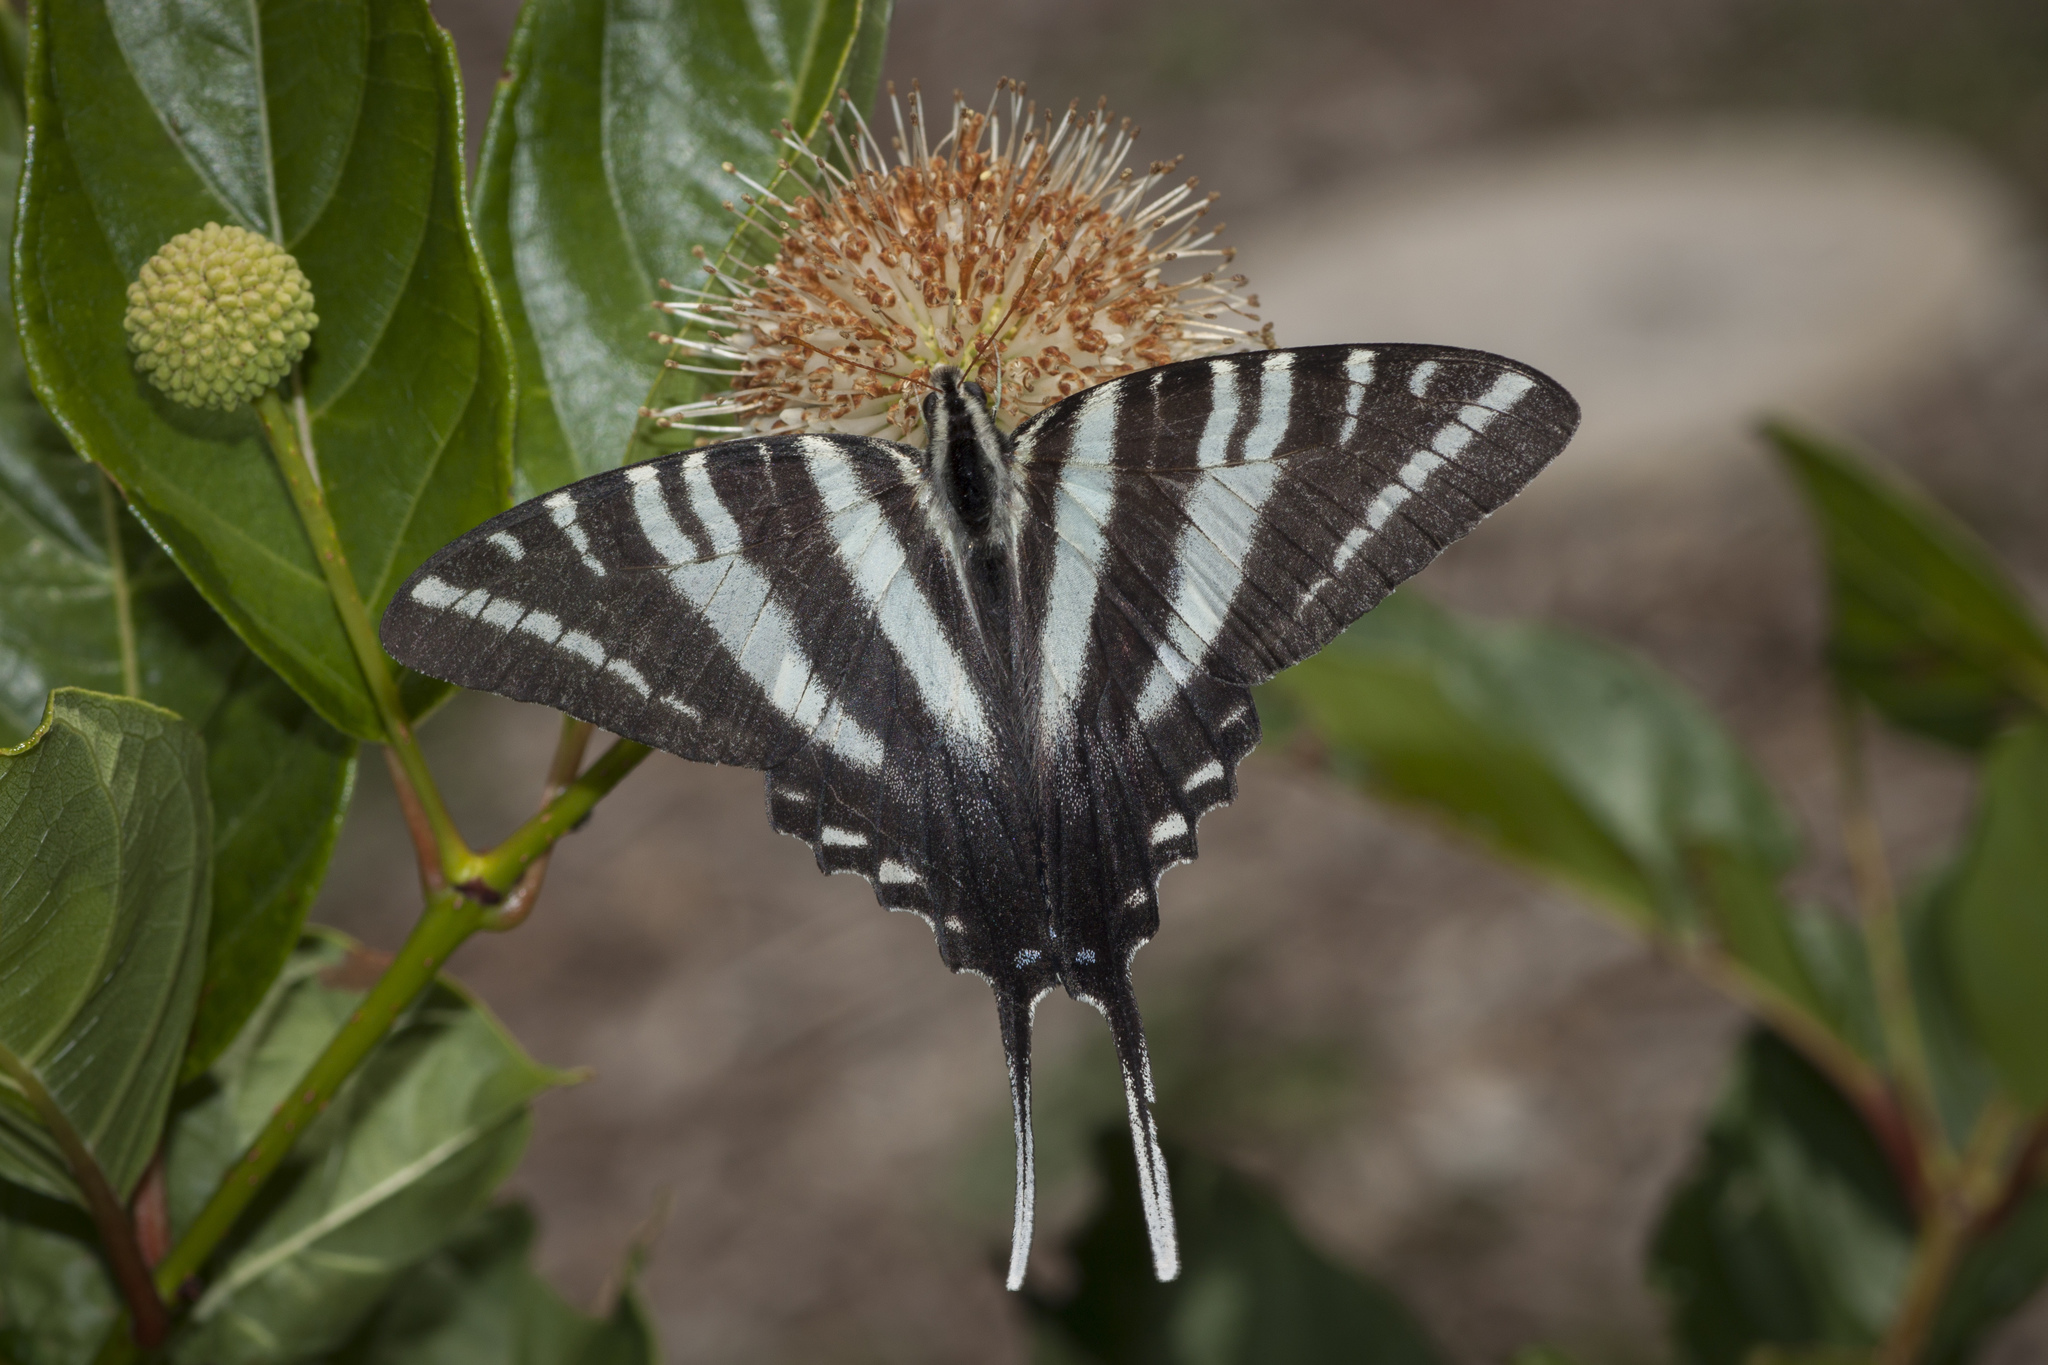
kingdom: Animalia
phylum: Arthropoda
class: Insecta
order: Lepidoptera
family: Papilionidae
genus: Protographium
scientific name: Protographium marcellus
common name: Zebra swallowtail
